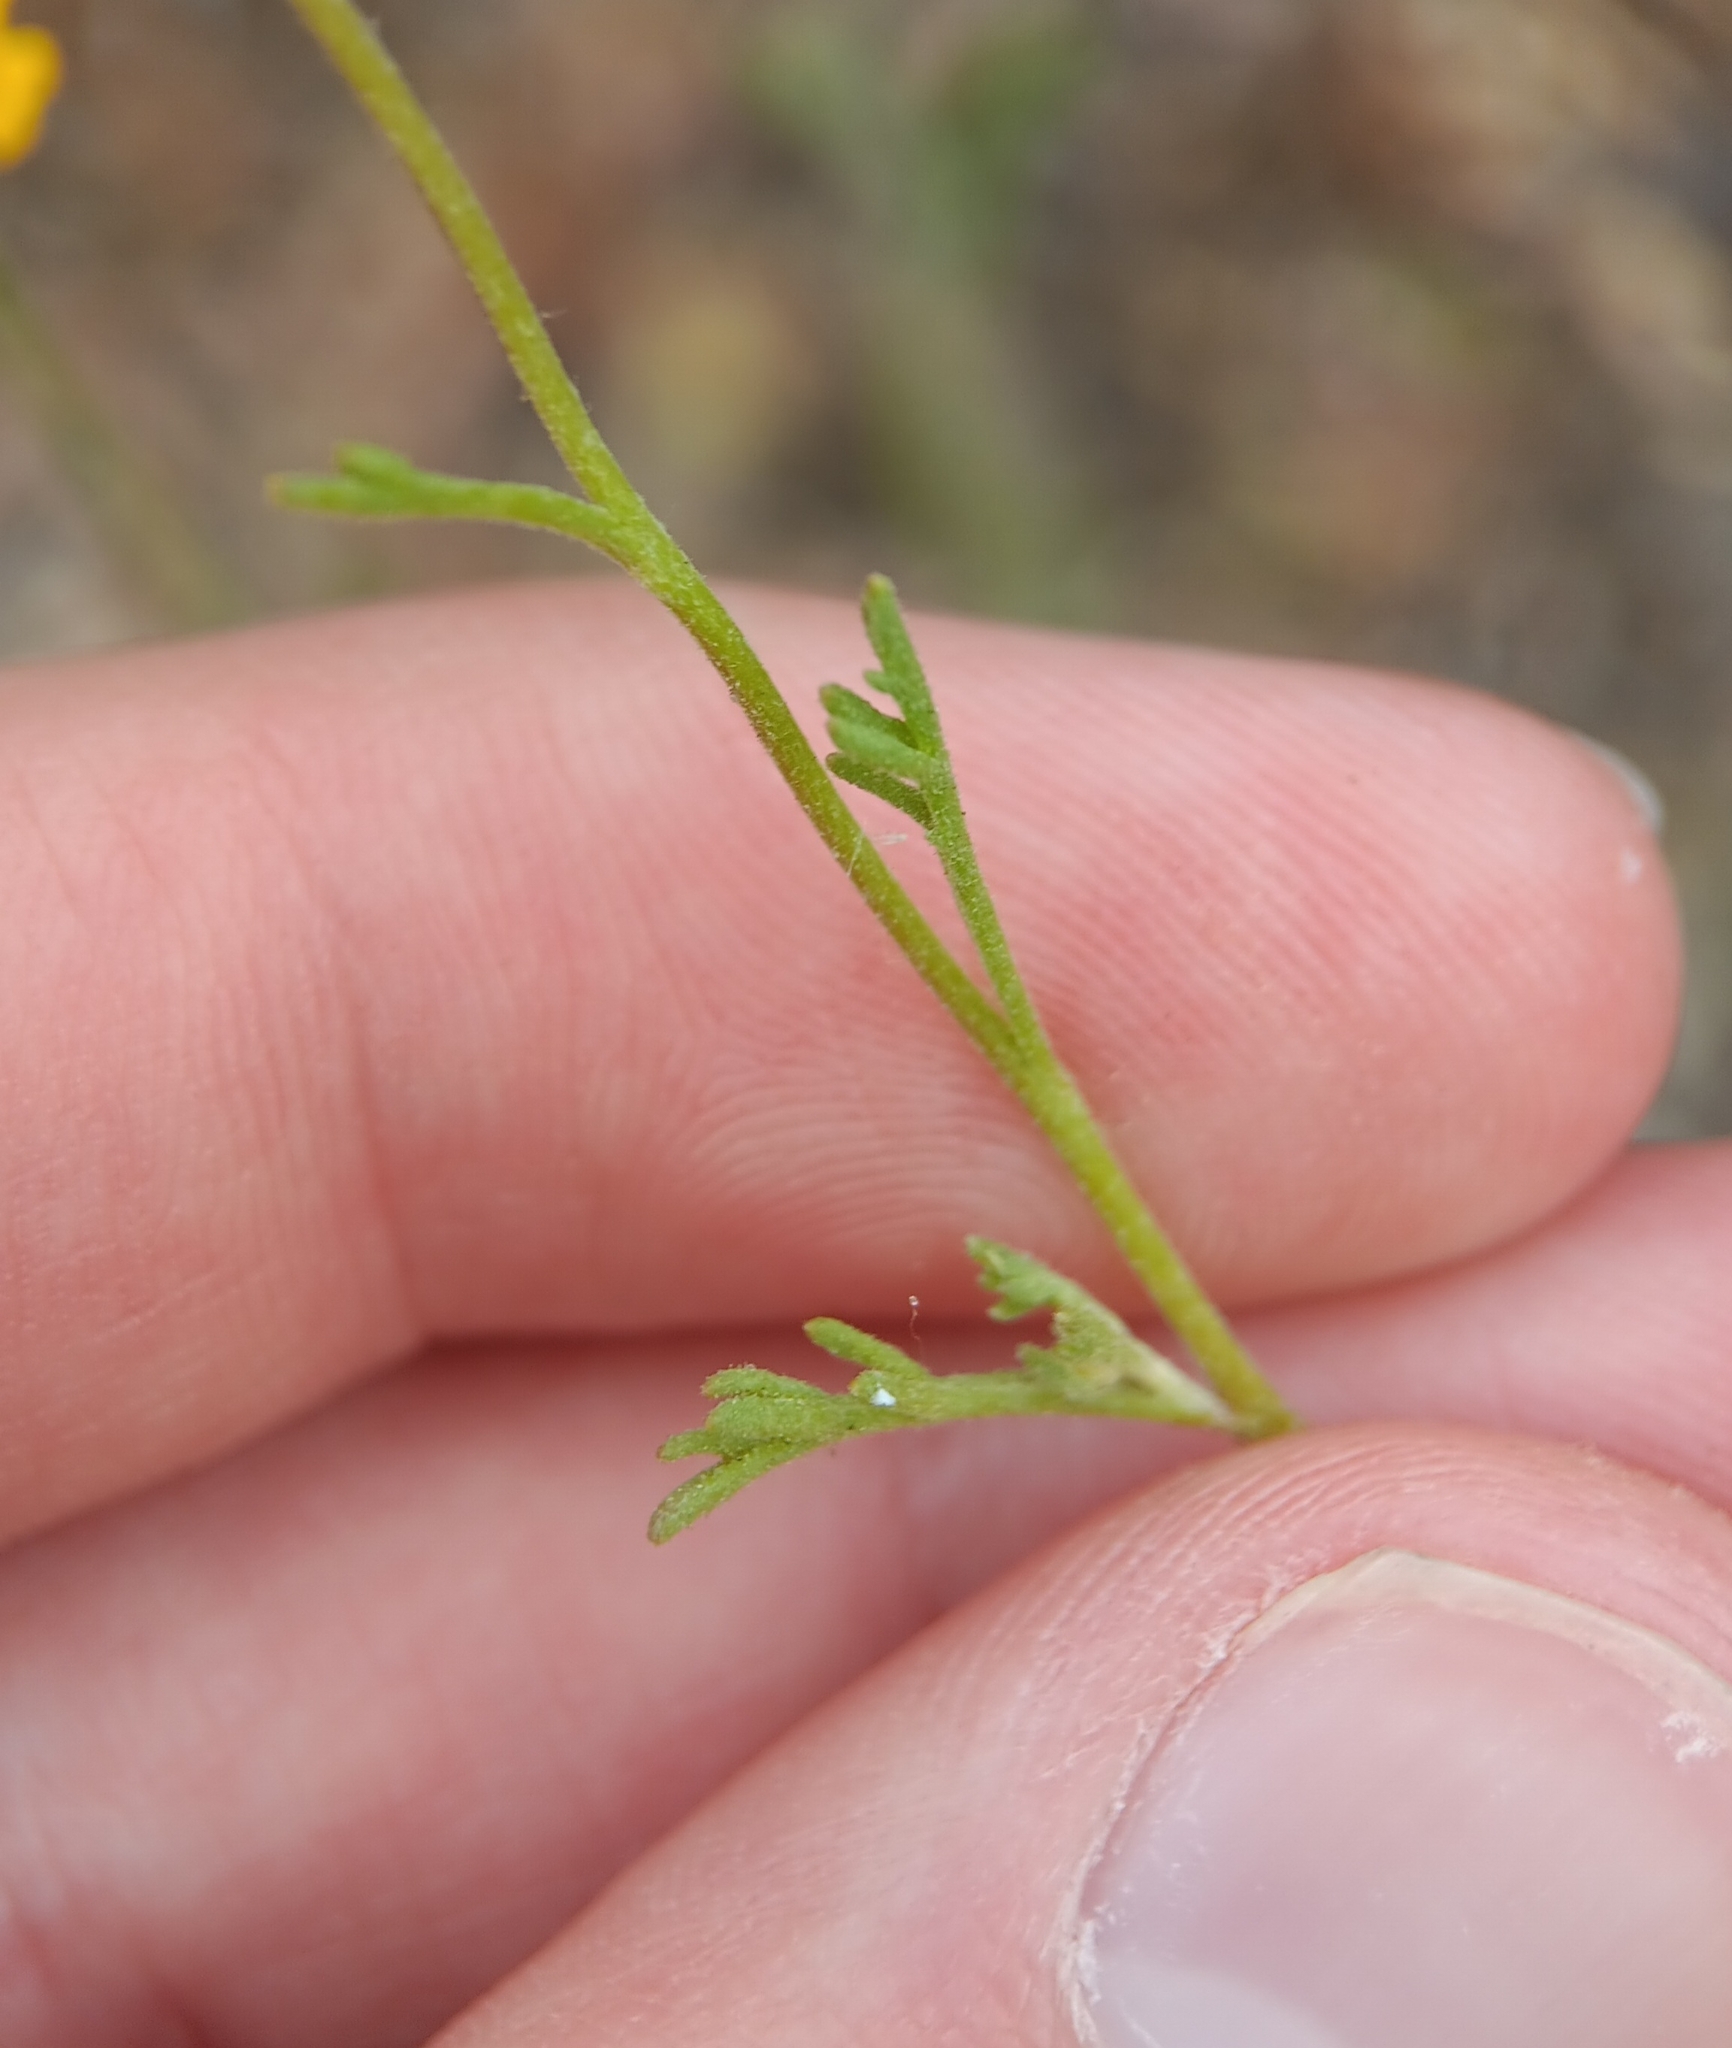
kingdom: Plantae
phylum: Tracheophyta
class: Magnoliopsida
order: Asterales
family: Asteraceae
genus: Chaenactis
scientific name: Chaenactis glabriuscula
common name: Yellow pincushion
